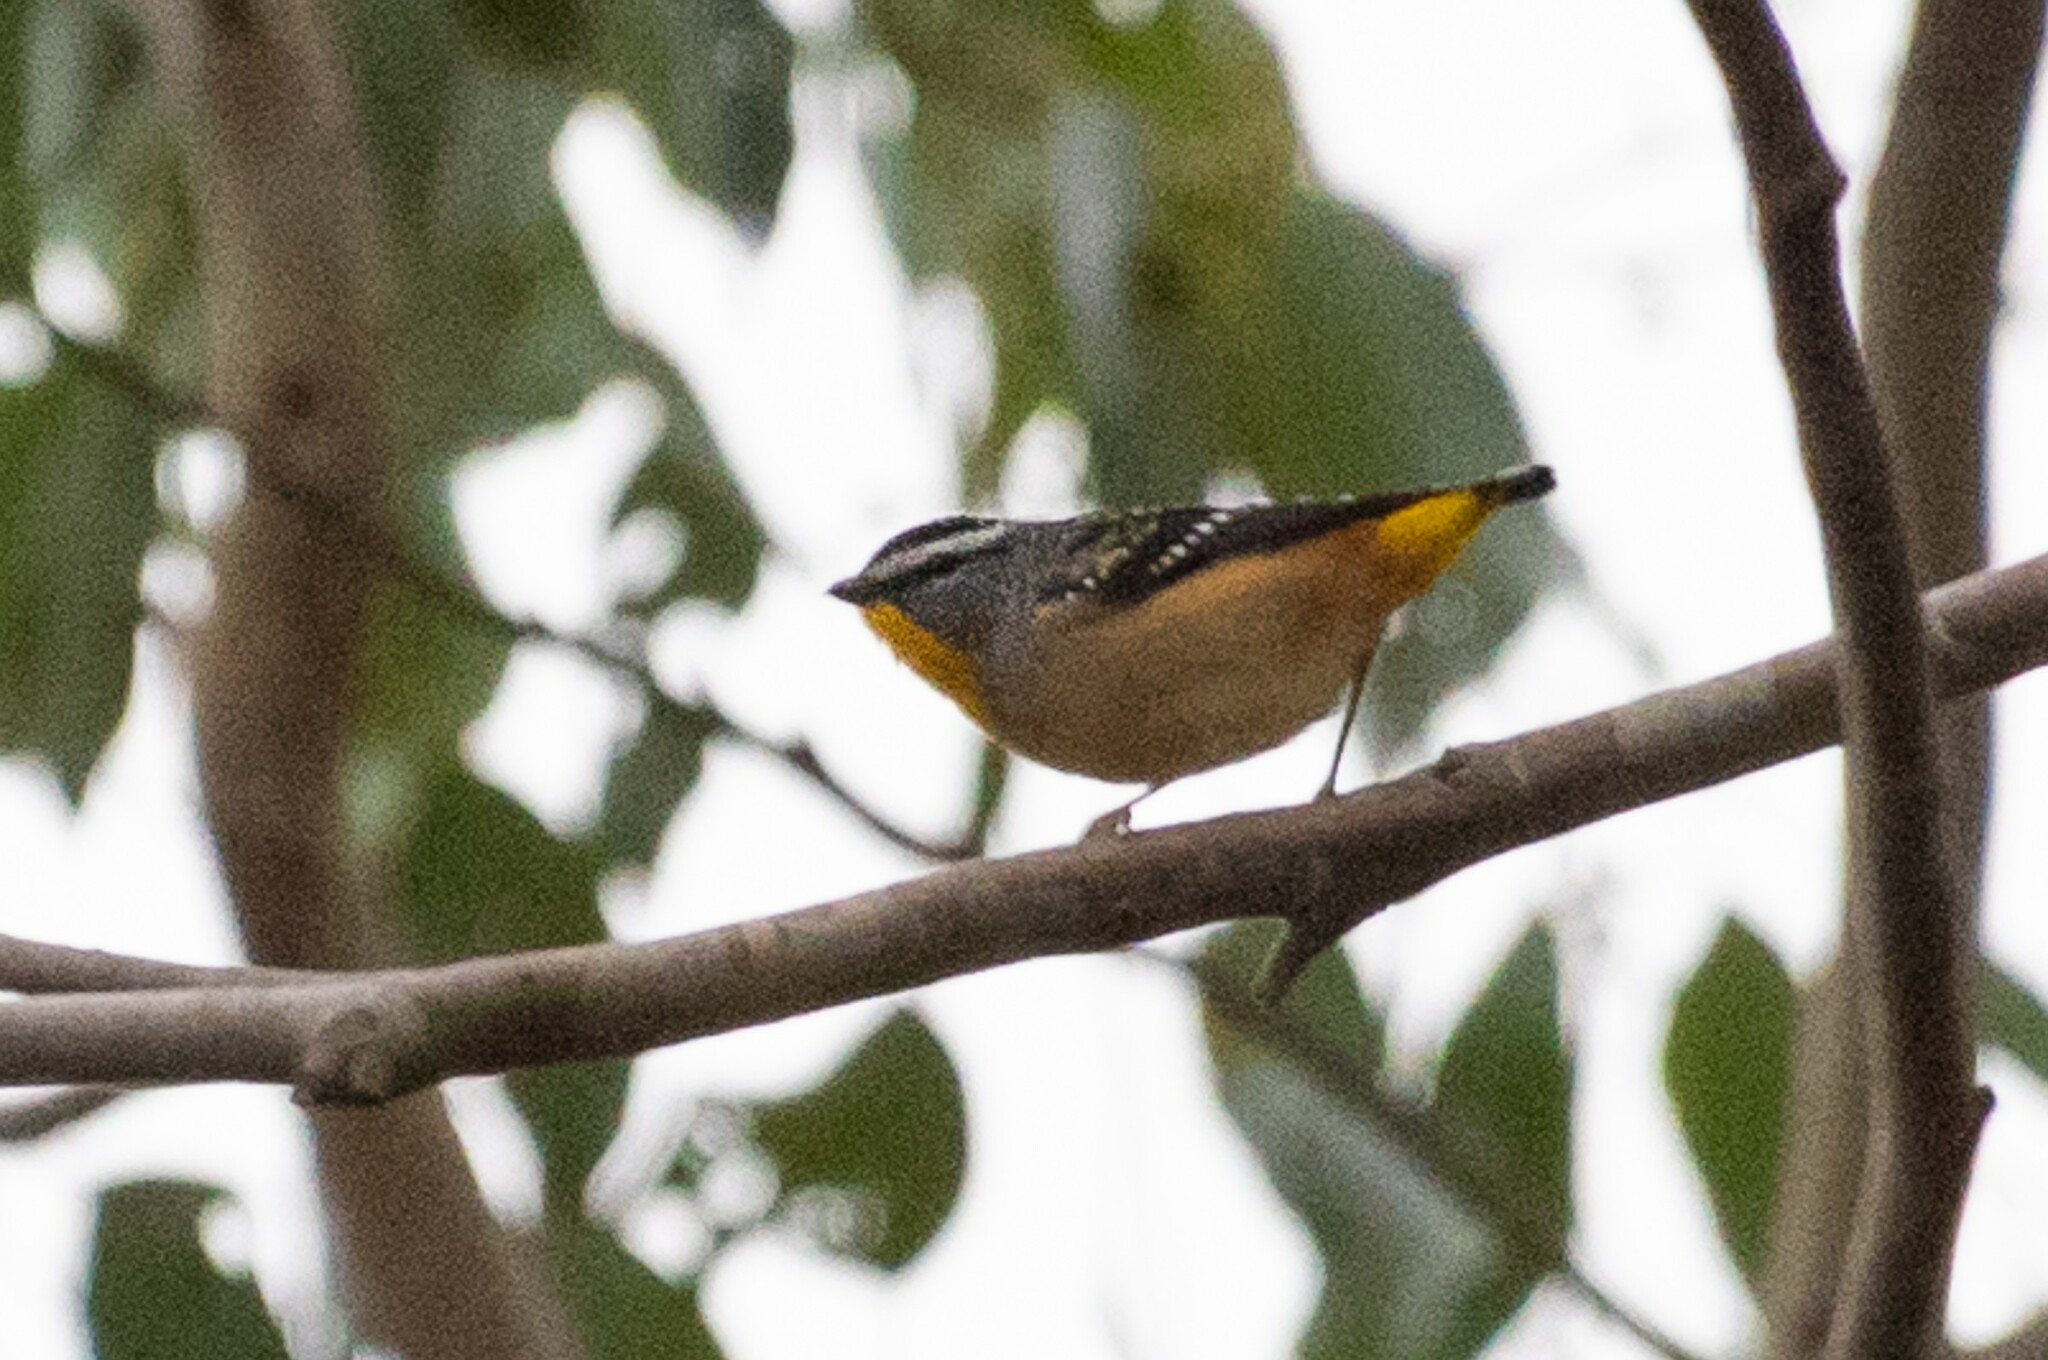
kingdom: Animalia
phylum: Chordata
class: Aves
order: Passeriformes
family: Pardalotidae
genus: Pardalotus
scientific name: Pardalotus punctatus
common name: Spotted pardalote
